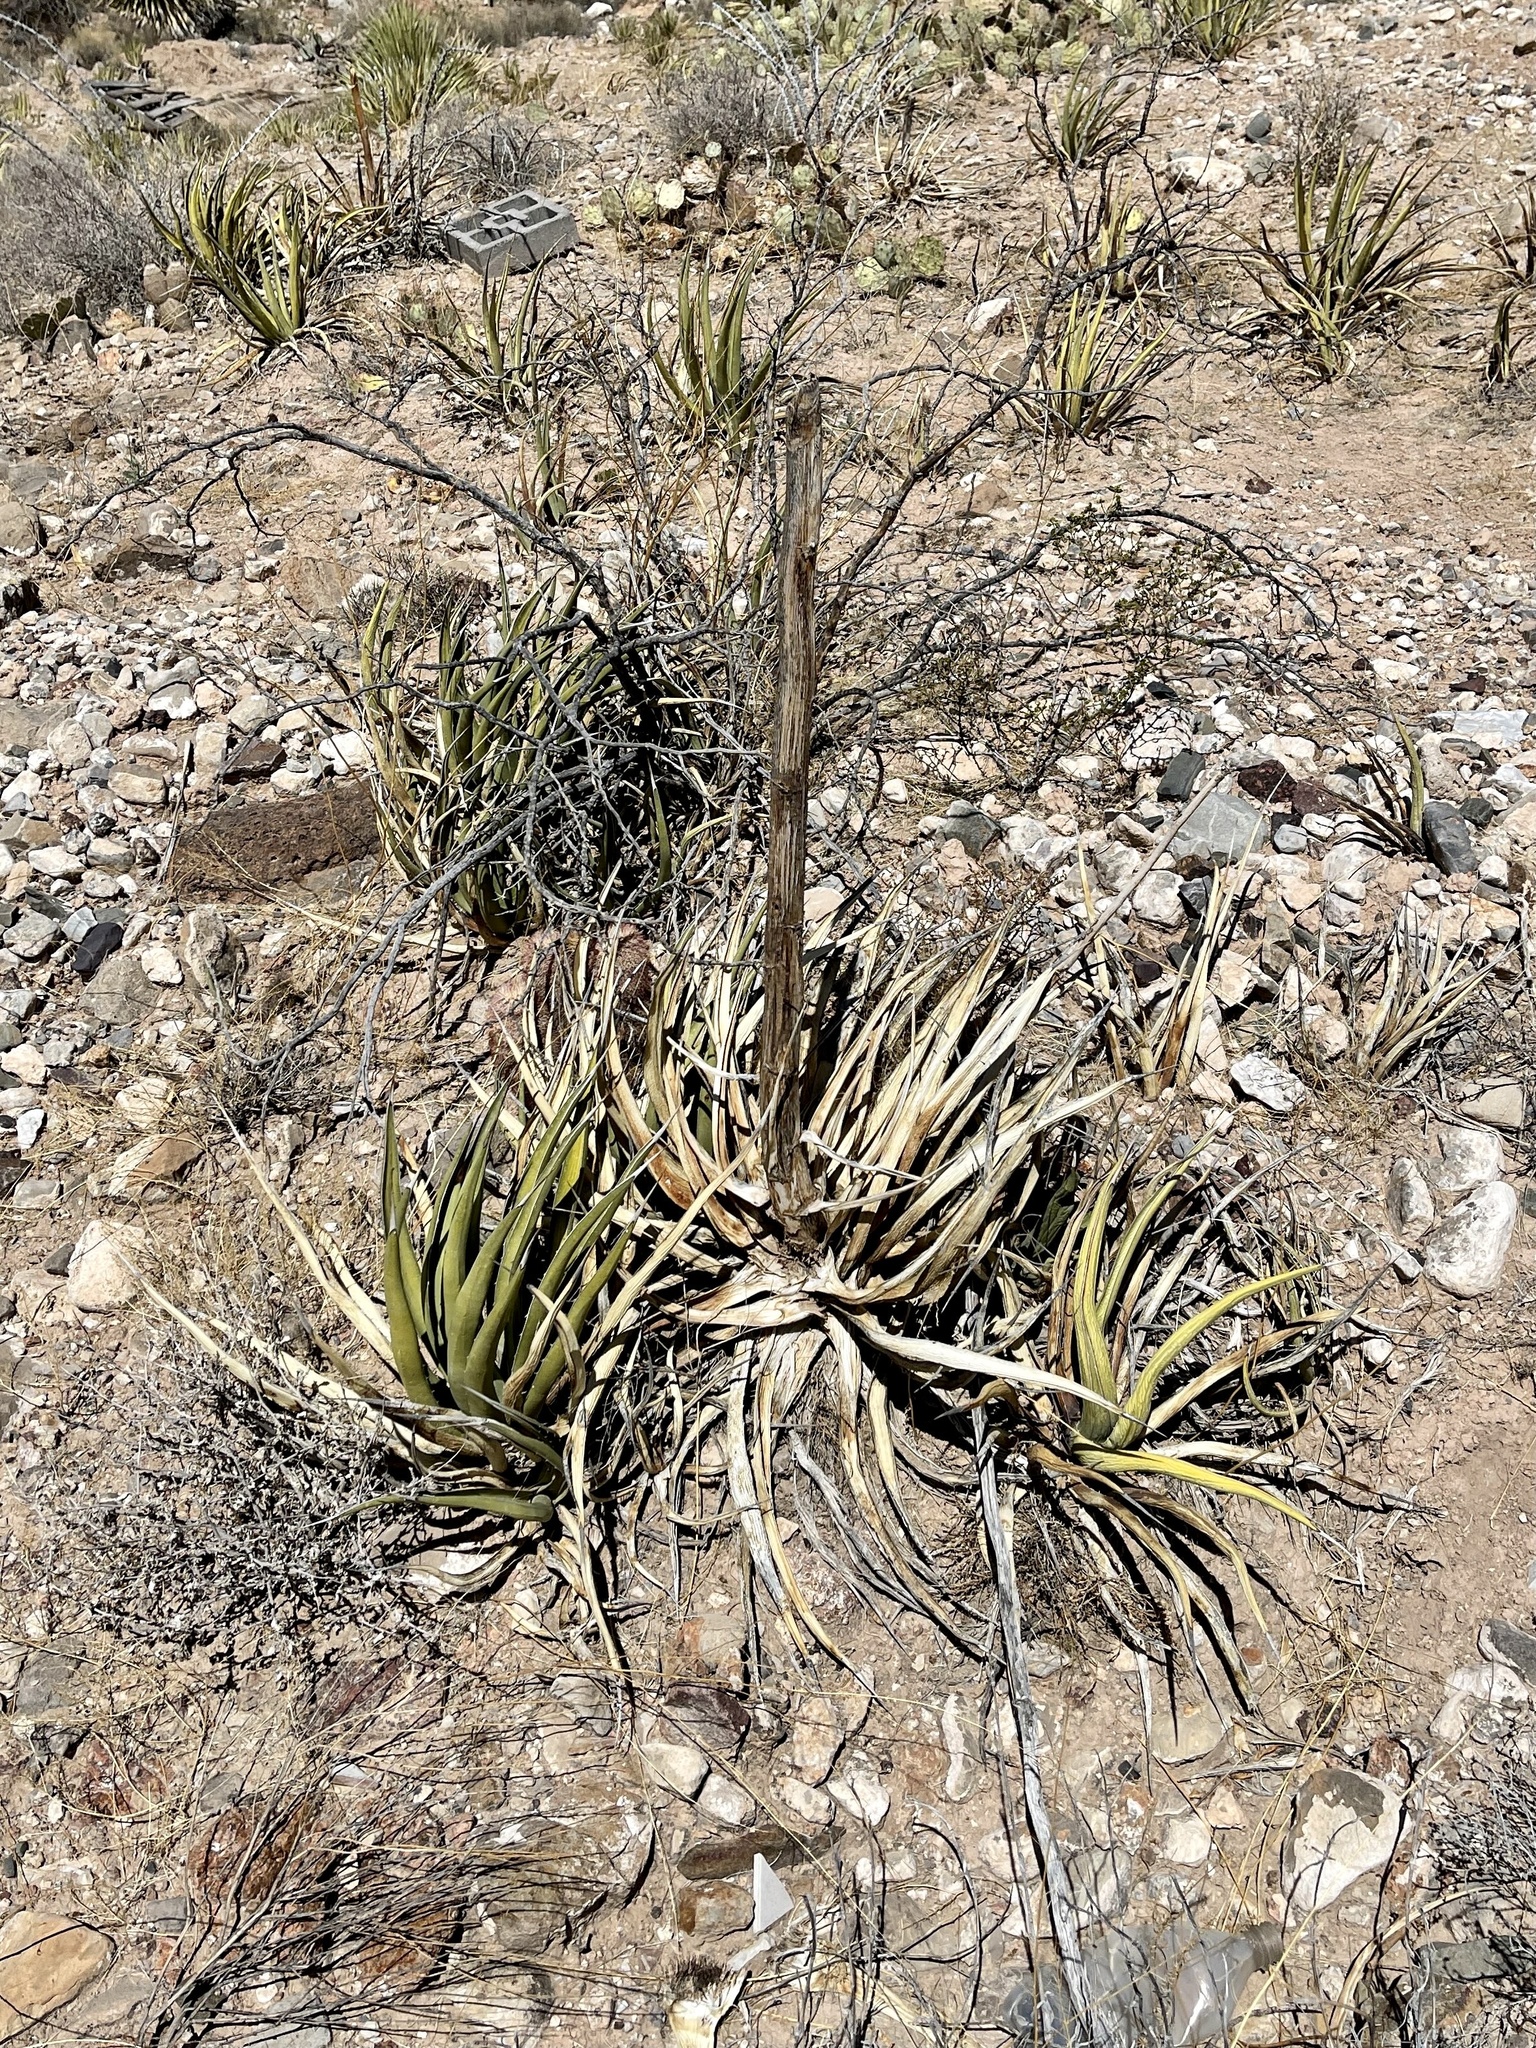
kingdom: Plantae
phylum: Tracheophyta
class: Liliopsida
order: Asparagales
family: Asparagaceae
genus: Agave
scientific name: Agave lechuguilla
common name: Lecheguilla agave
